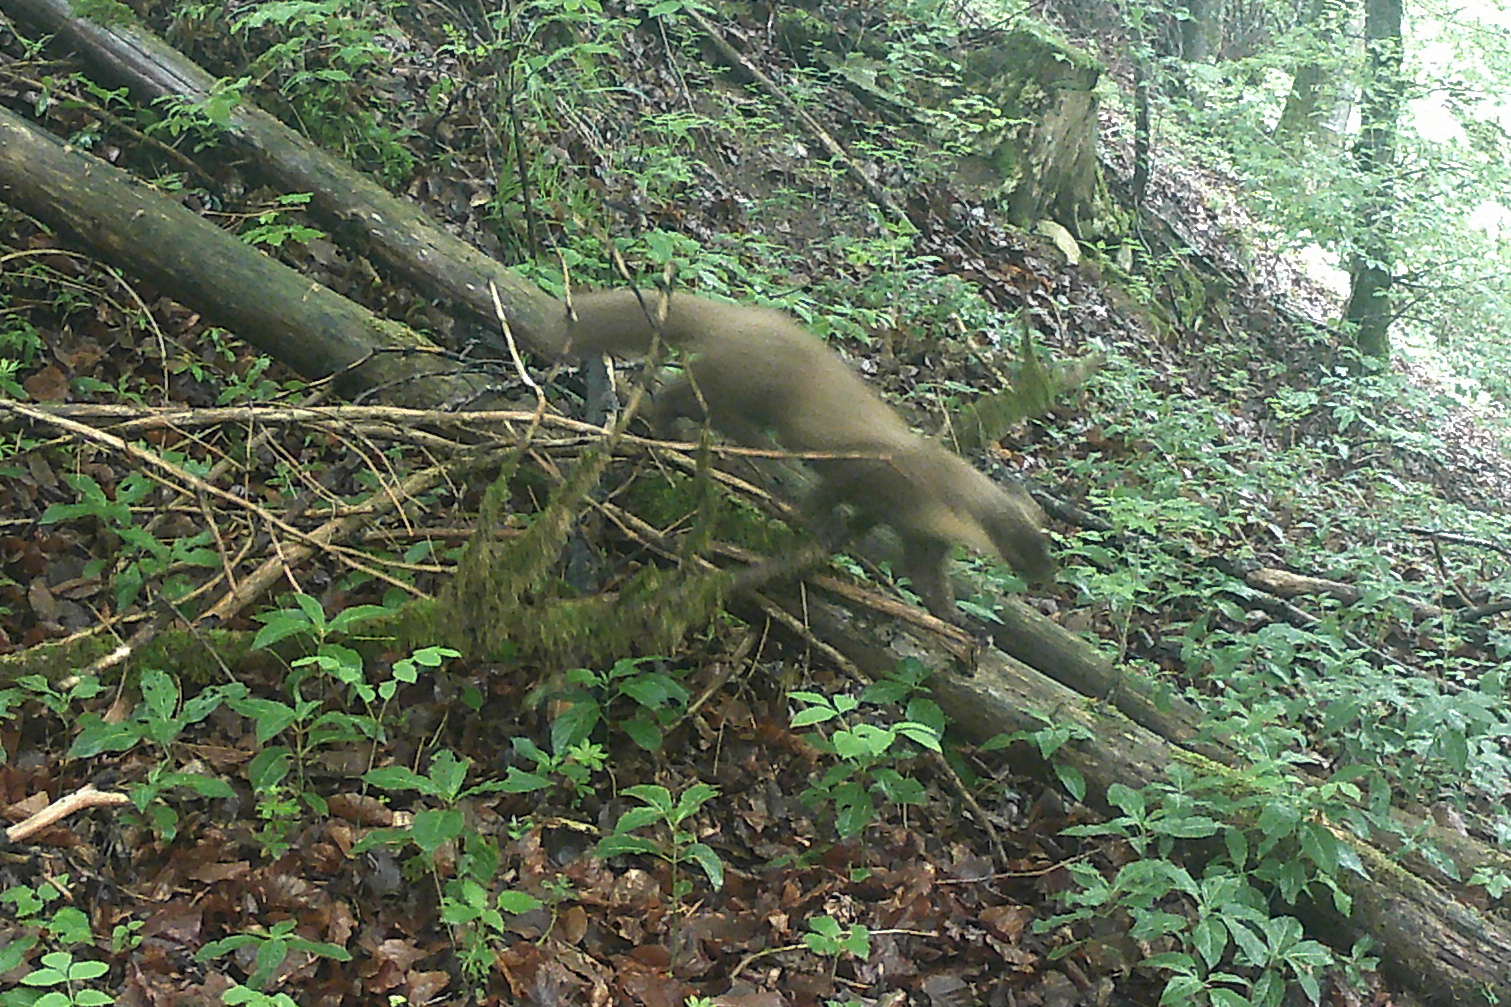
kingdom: Animalia
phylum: Chordata
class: Mammalia
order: Carnivora
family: Mustelidae
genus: Martes
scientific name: Martes martes
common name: European pine marten
